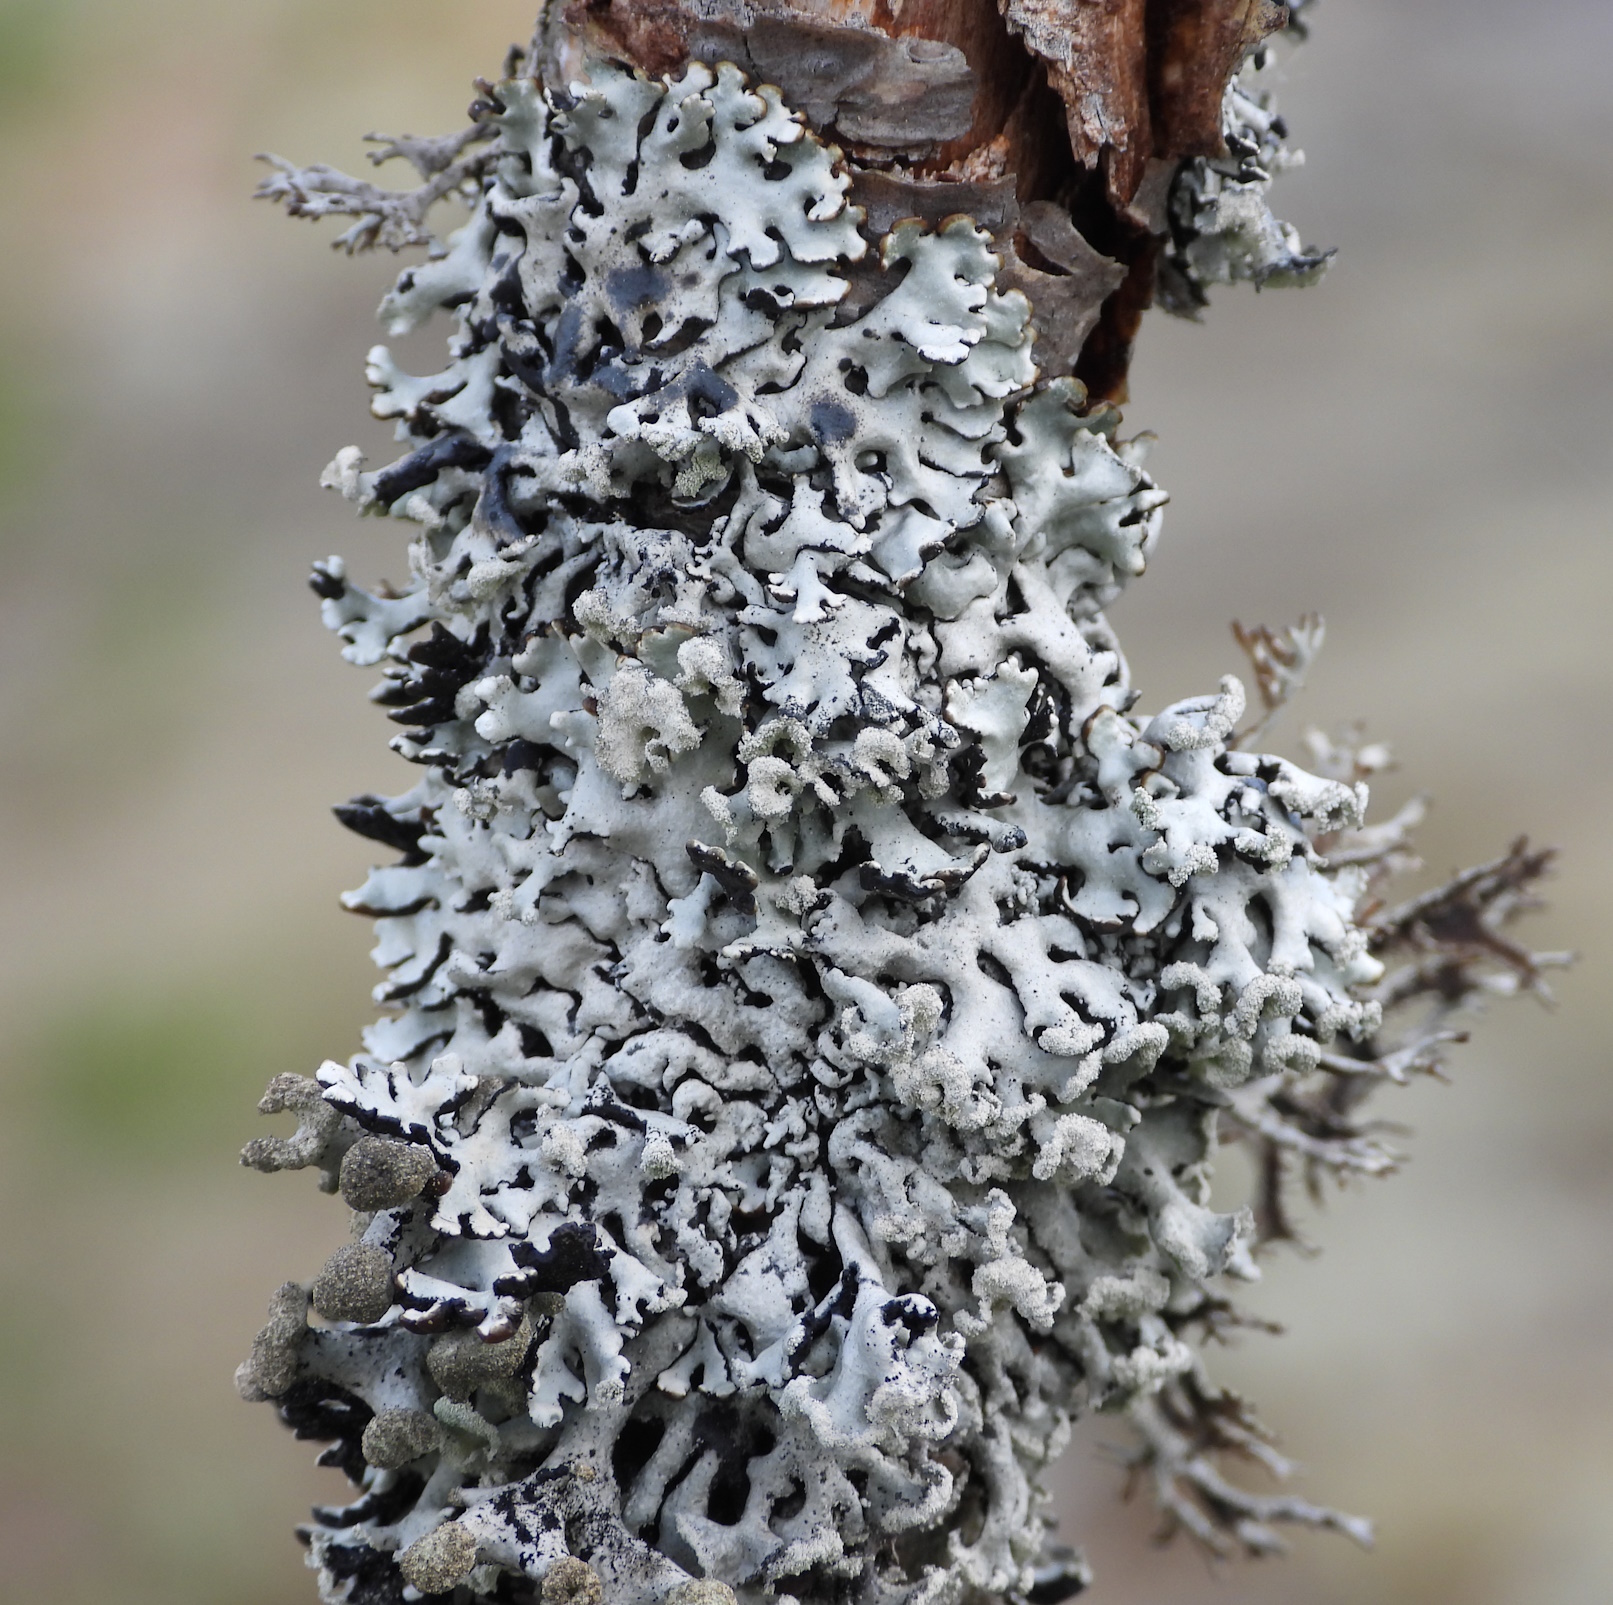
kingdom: Fungi
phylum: Ascomycota
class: Lecanoromycetes
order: Lecanorales
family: Parmeliaceae
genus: Hypogymnia
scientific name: Hypogymnia physodes
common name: Dark crottle
